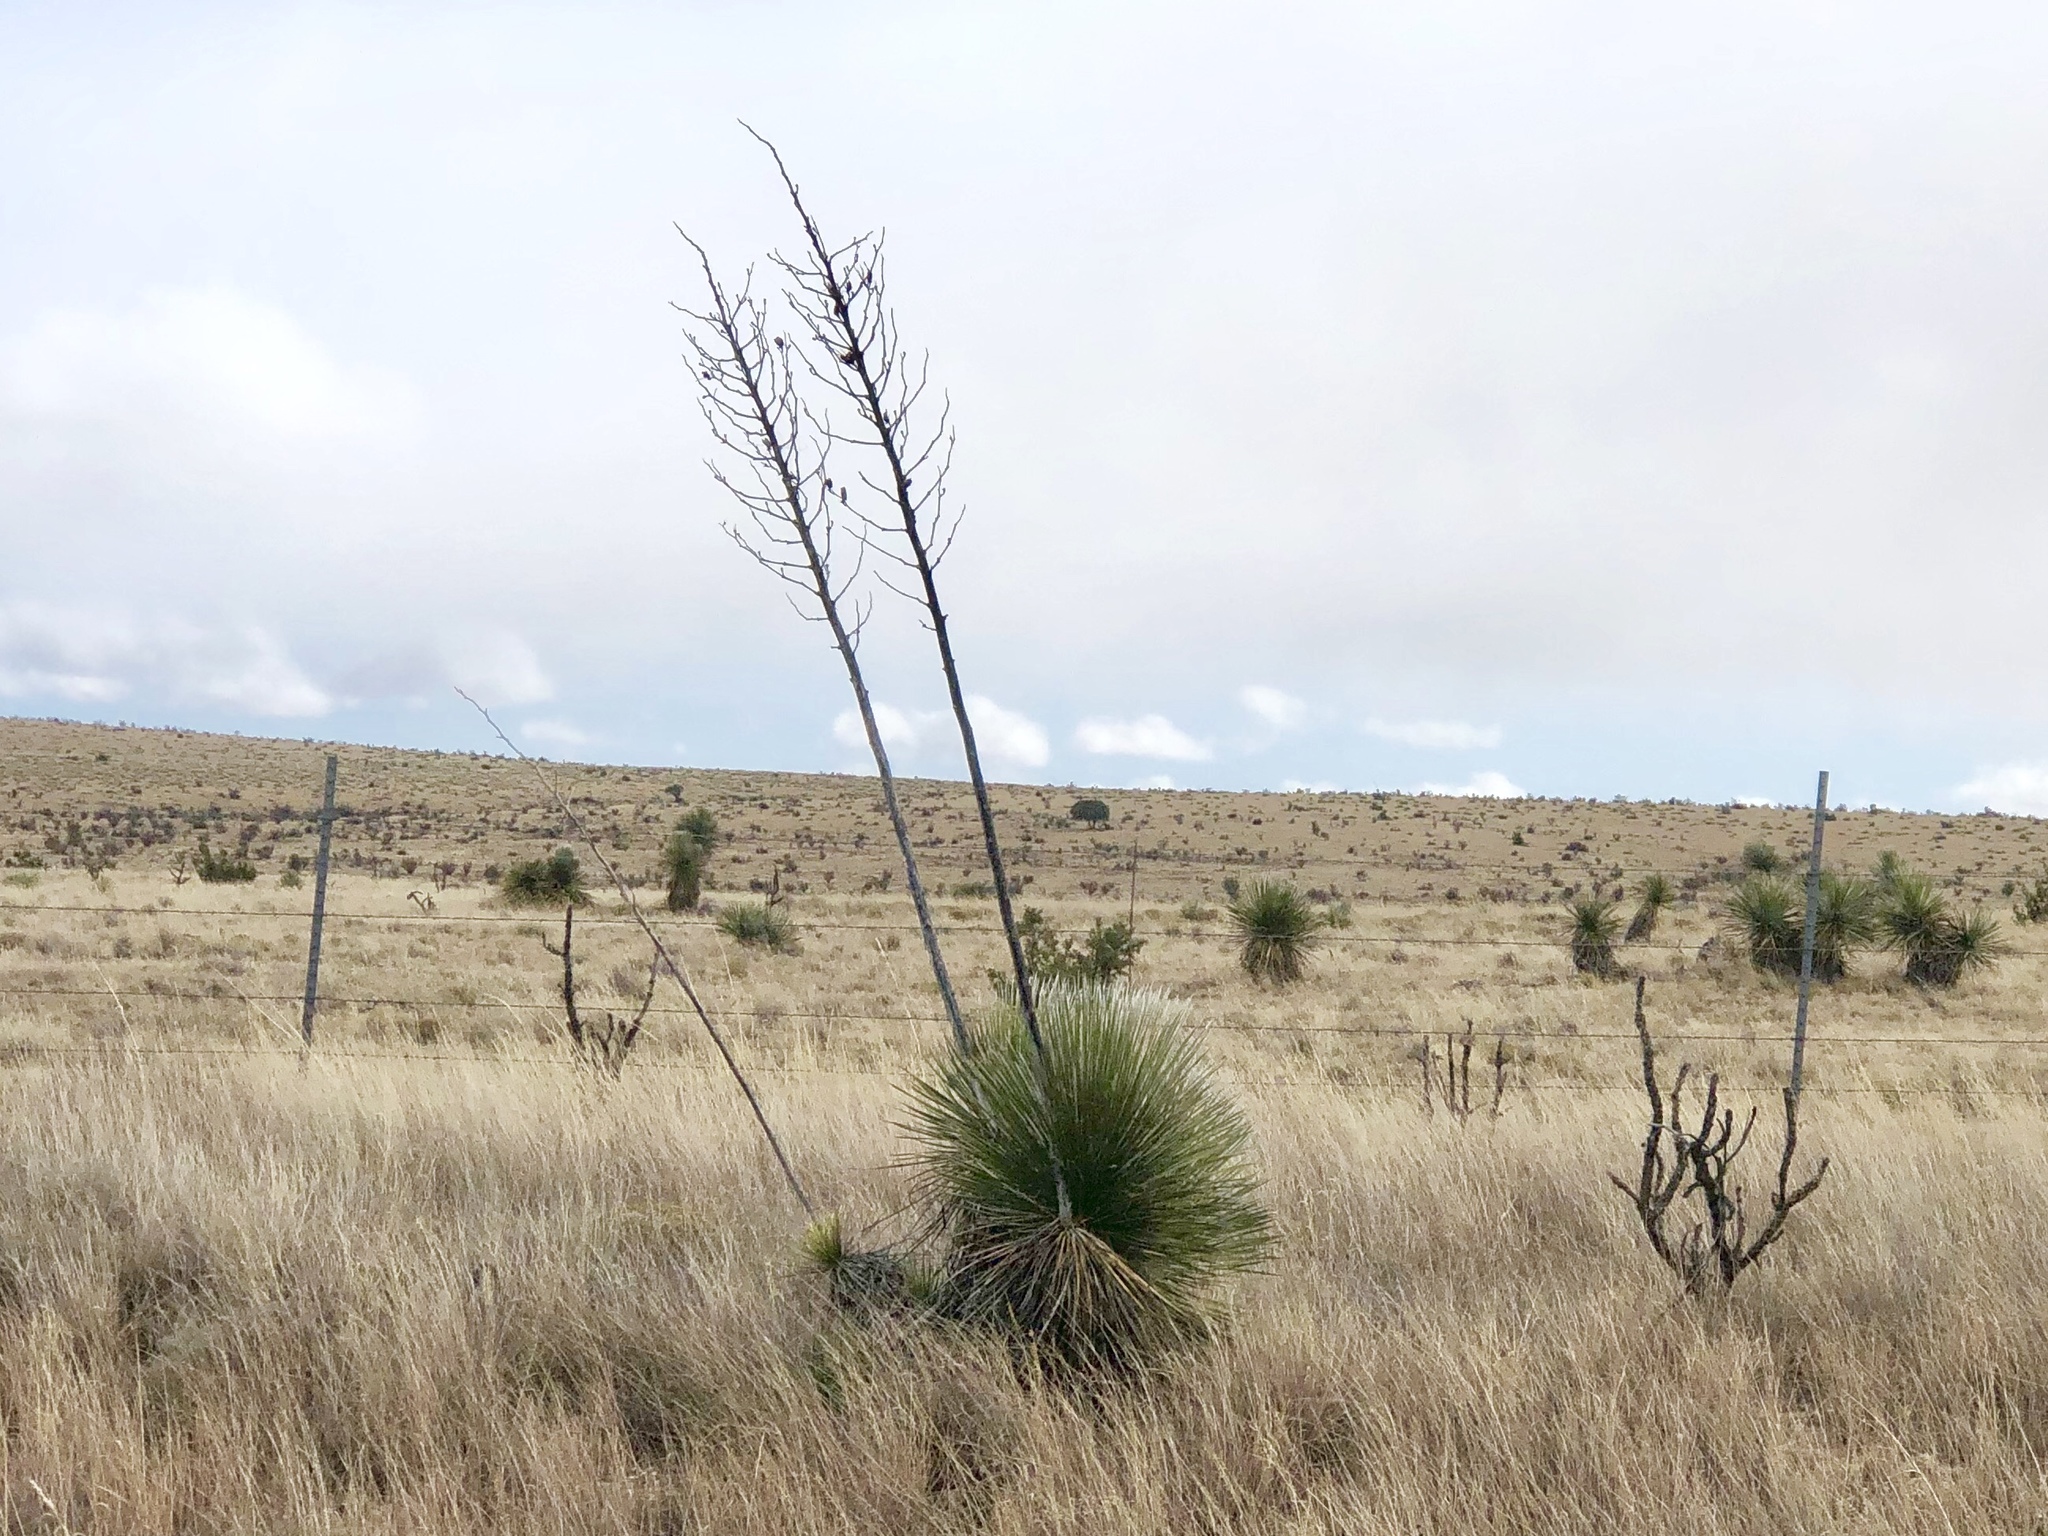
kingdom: Plantae
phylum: Tracheophyta
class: Liliopsida
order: Asparagales
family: Asparagaceae
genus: Yucca
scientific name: Yucca elata
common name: Palmella
